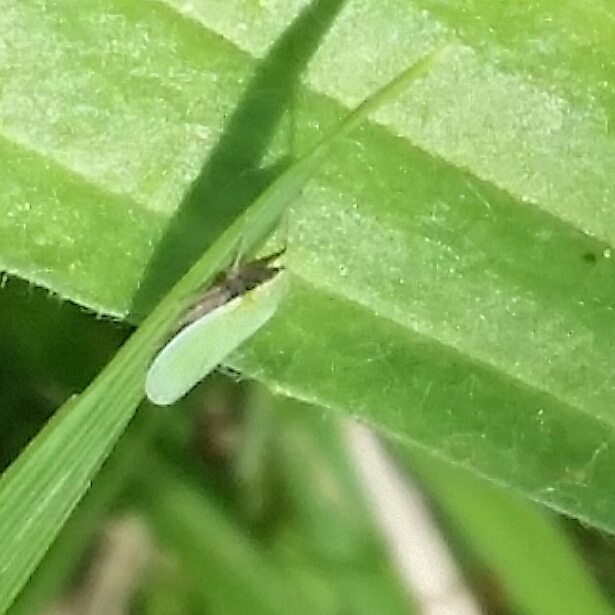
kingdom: Animalia
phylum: Arthropoda
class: Insecta
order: Hemiptera
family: Cicadellidae
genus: Draeculacephala
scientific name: Draeculacephala
